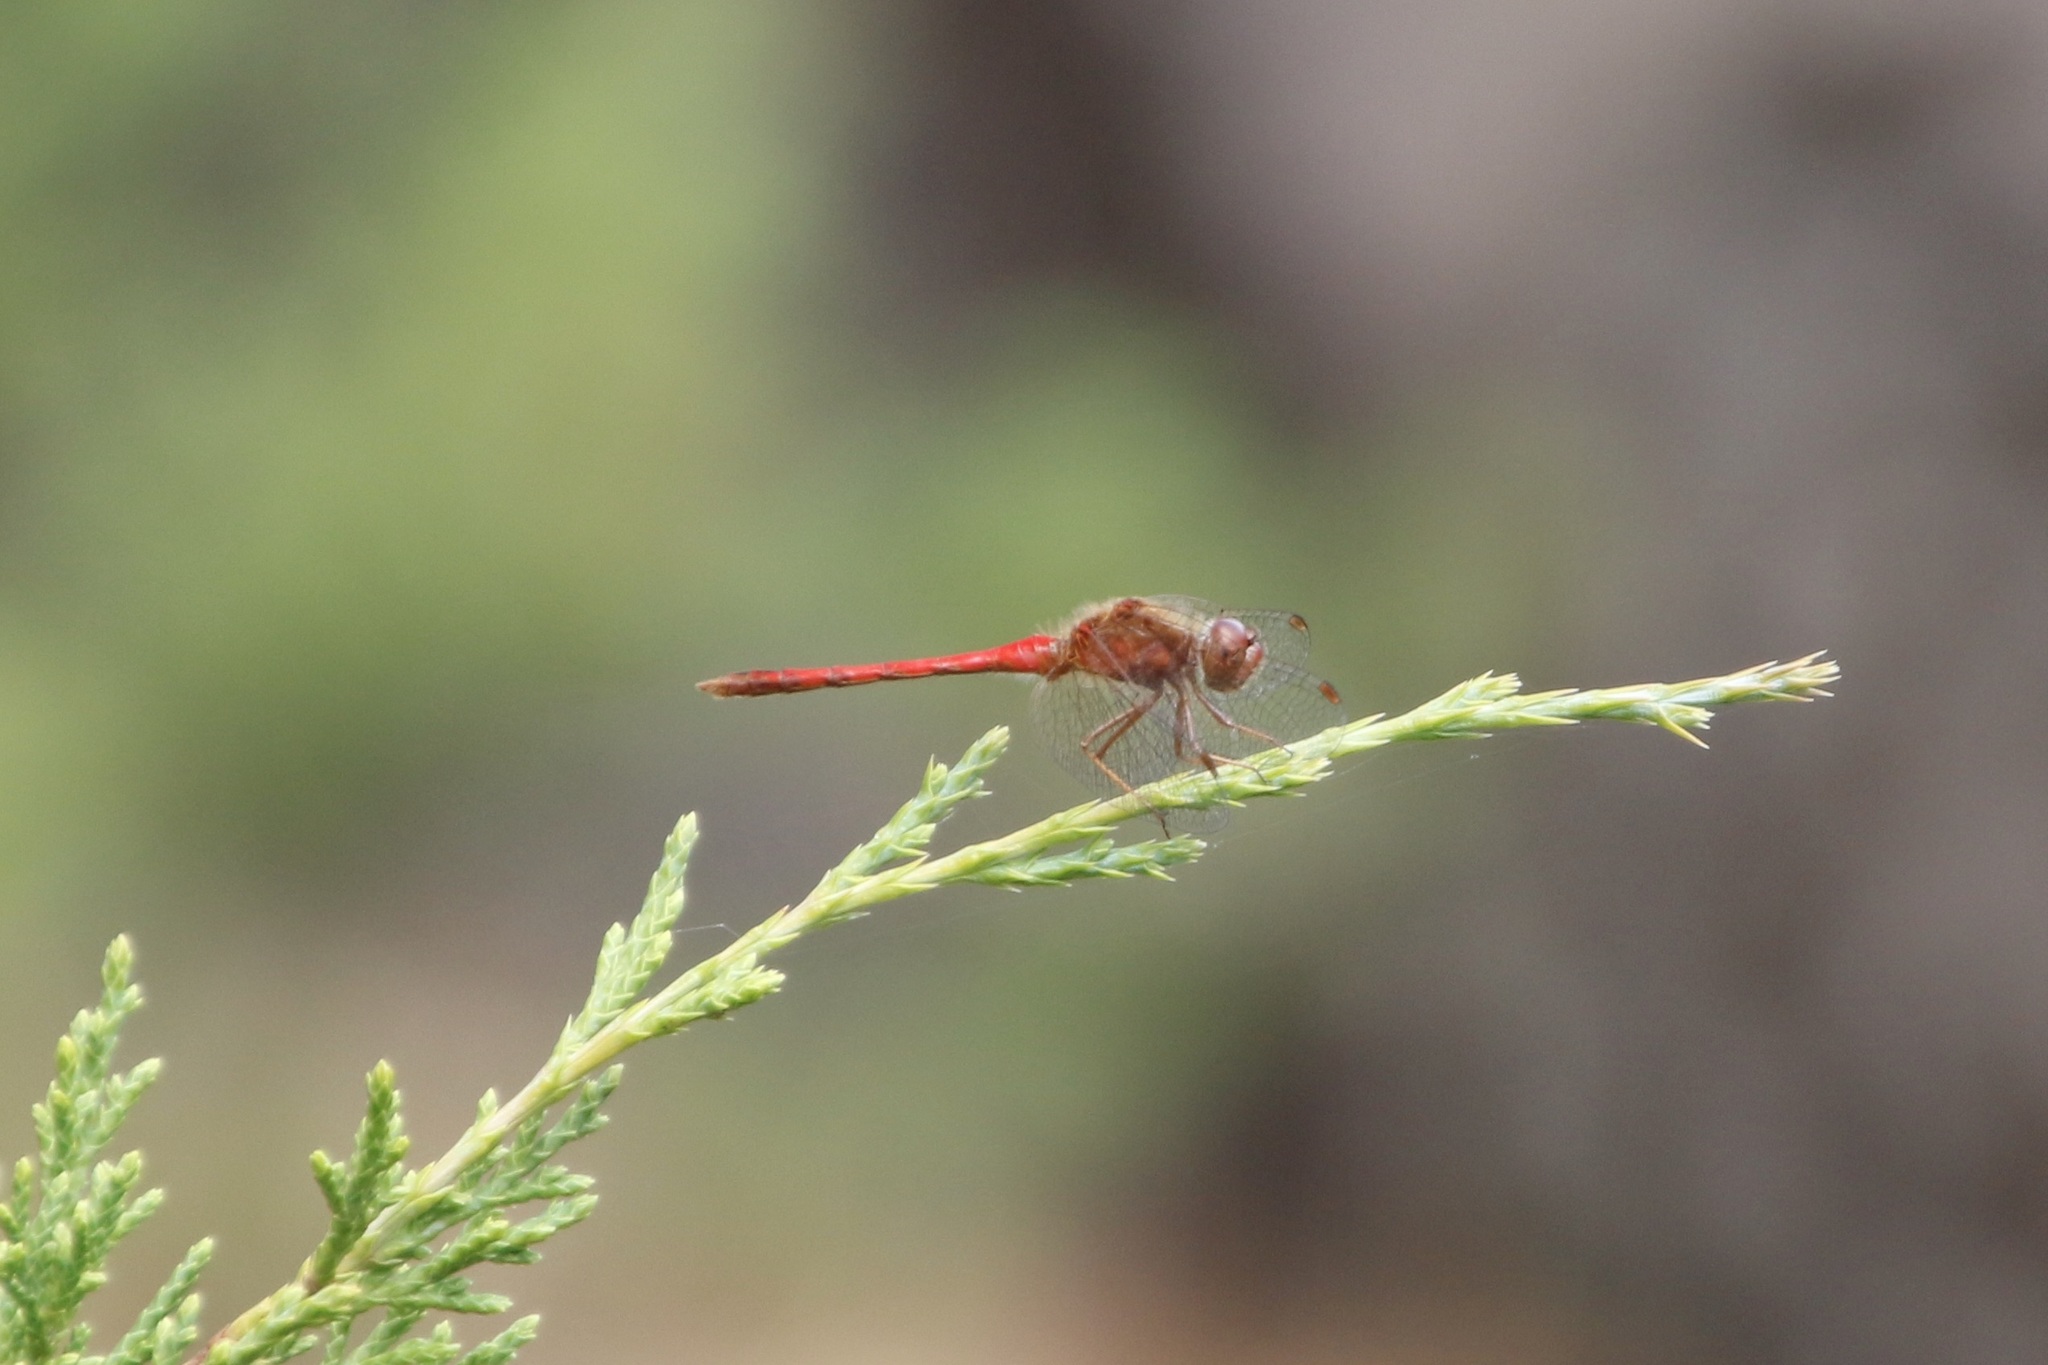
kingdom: Animalia
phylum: Arthropoda
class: Insecta
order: Odonata
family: Libellulidae
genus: Sympetrum
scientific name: Sympetrum vicinum
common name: Autumn meadowhawk
